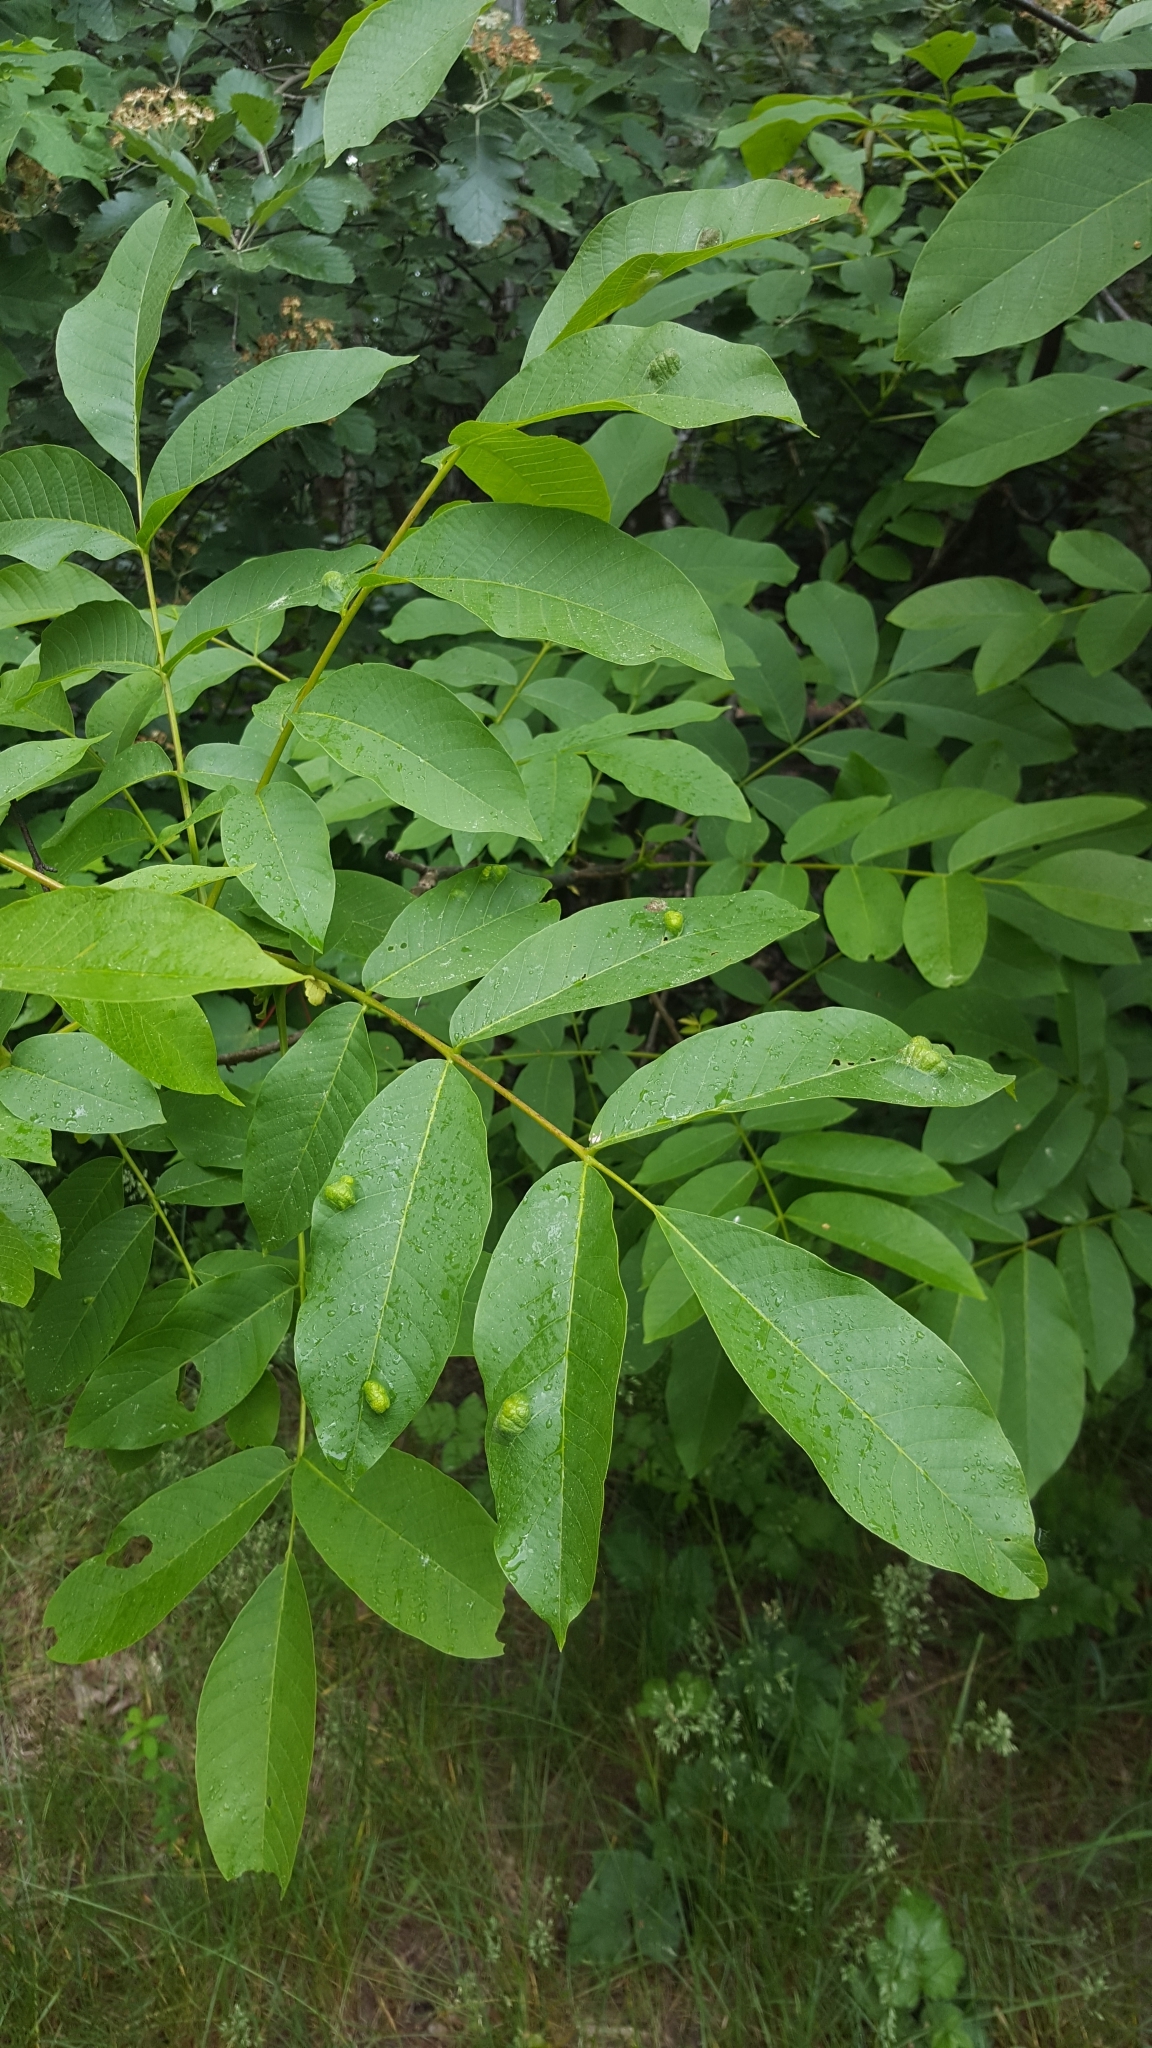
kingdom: Plantae
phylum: Tracheophyta
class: Magnoliopsida
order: Fagales
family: Juglandaceae
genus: Juglans
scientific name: Juglans regia
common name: Walnut
